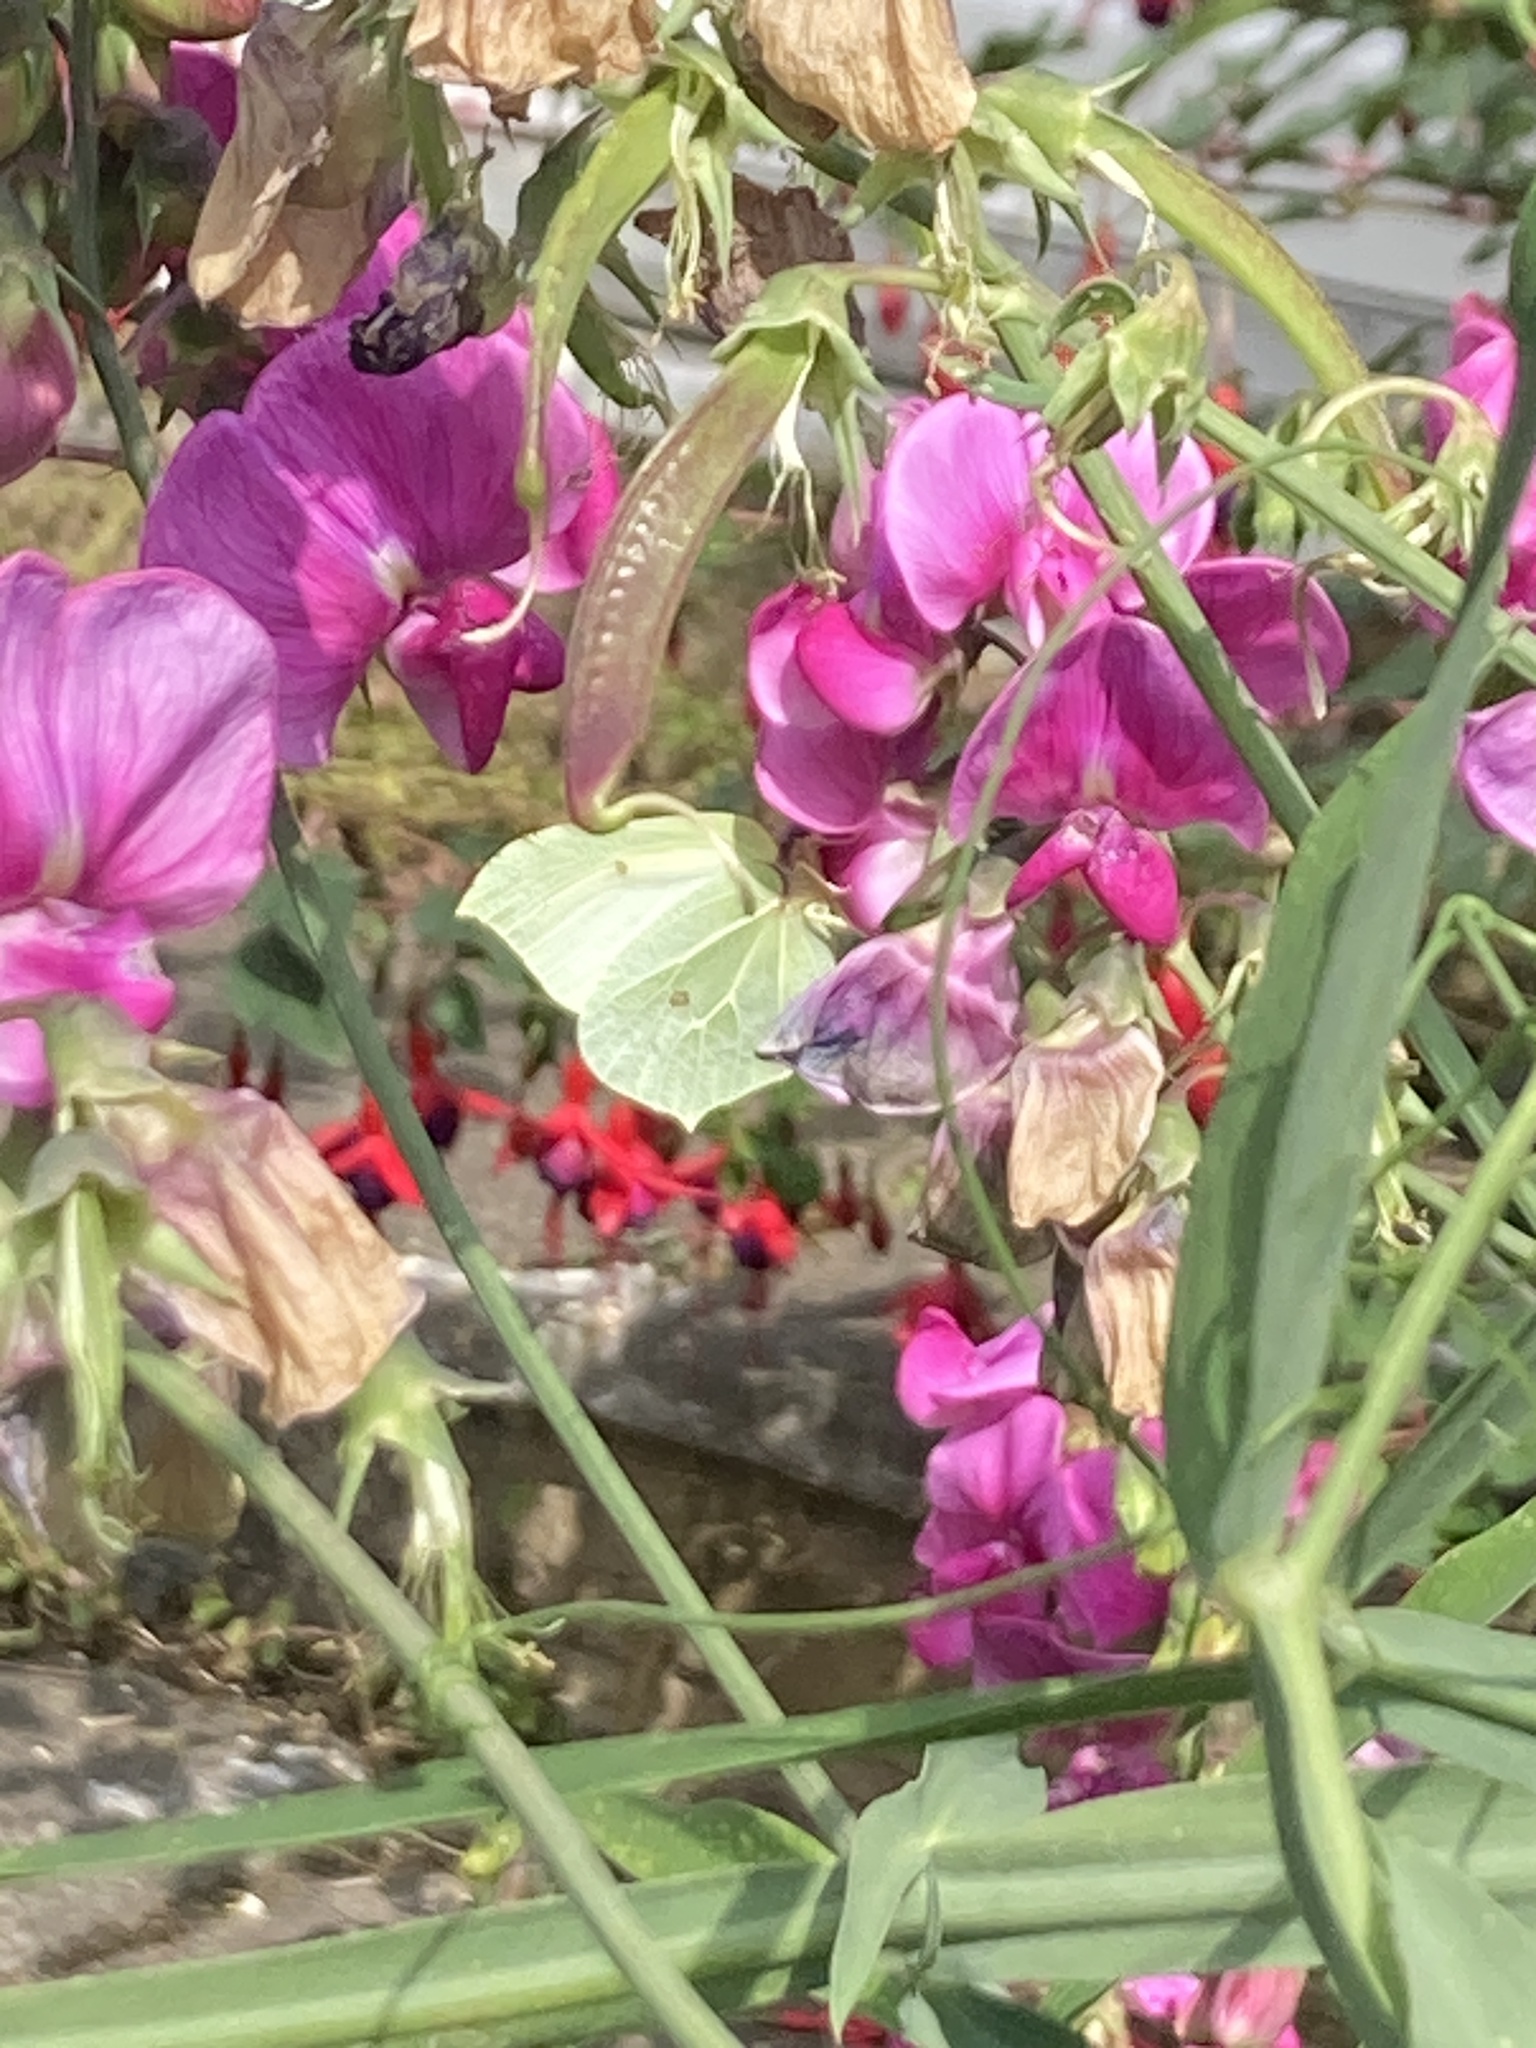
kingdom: Animalia
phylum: Arthropoda
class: Insecta
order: Lepidoptera
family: Pieridae
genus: Gonepteryx
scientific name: Gonepteryx rhamni
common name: Brimstone
